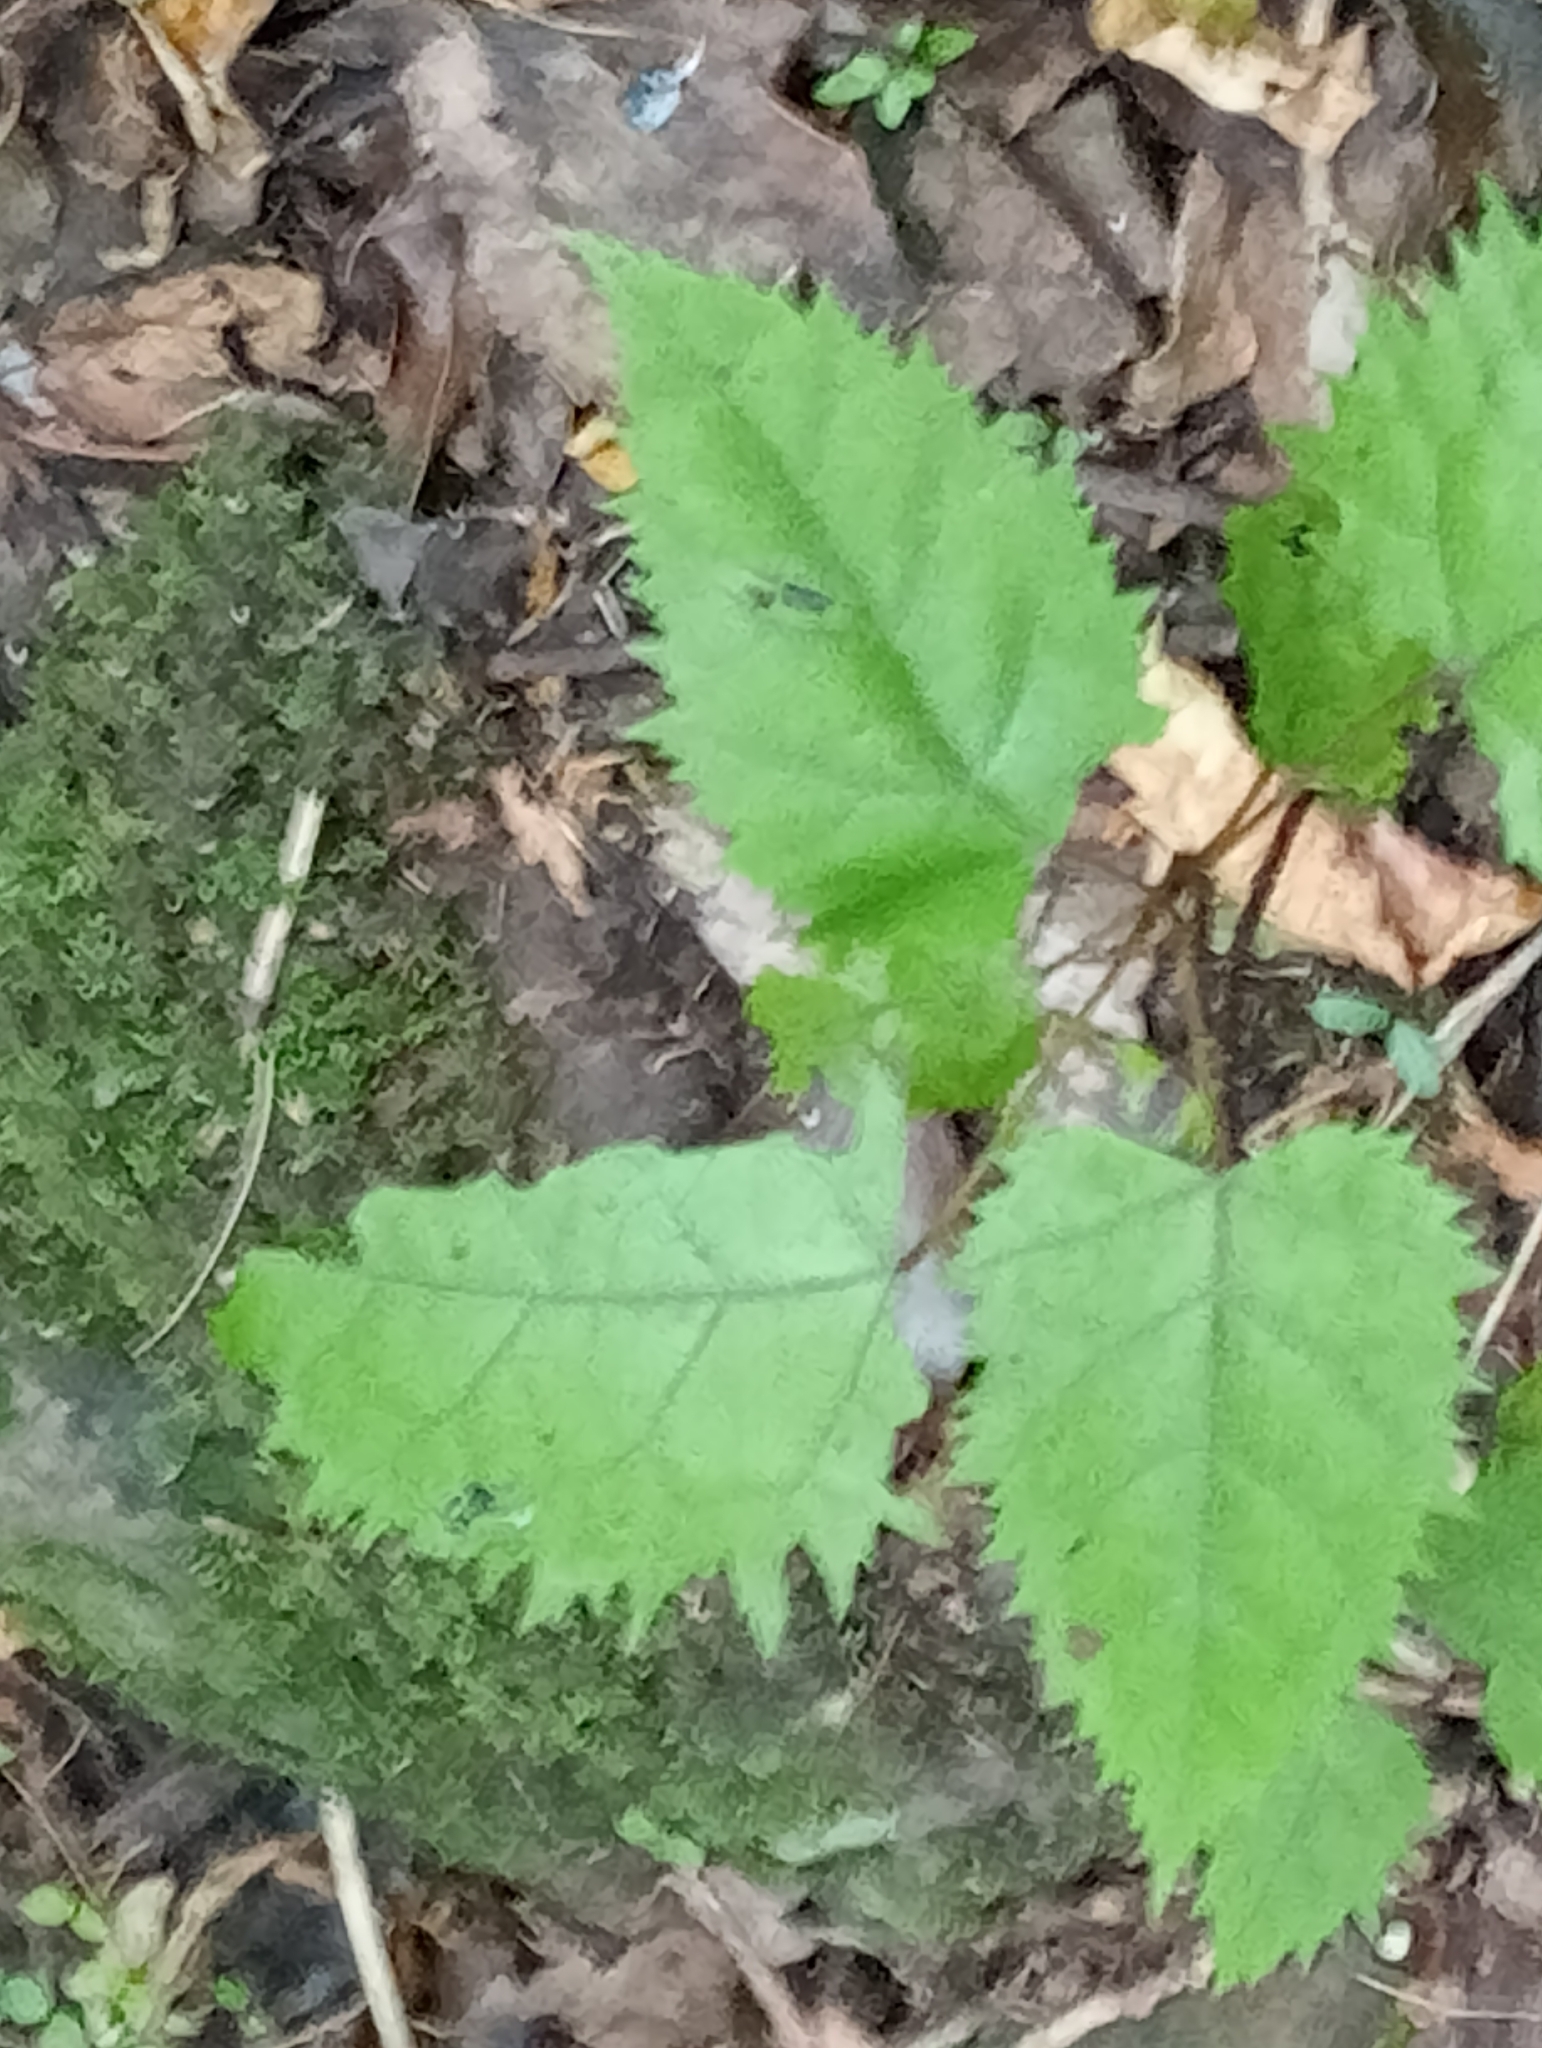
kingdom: Plantae
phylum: Tracheophyta
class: Magnoliopsida
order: Oxalidales
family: Elaeocarpaceae
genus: Aristotelia
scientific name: Aristotelia serrata
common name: New zealand wineberry
